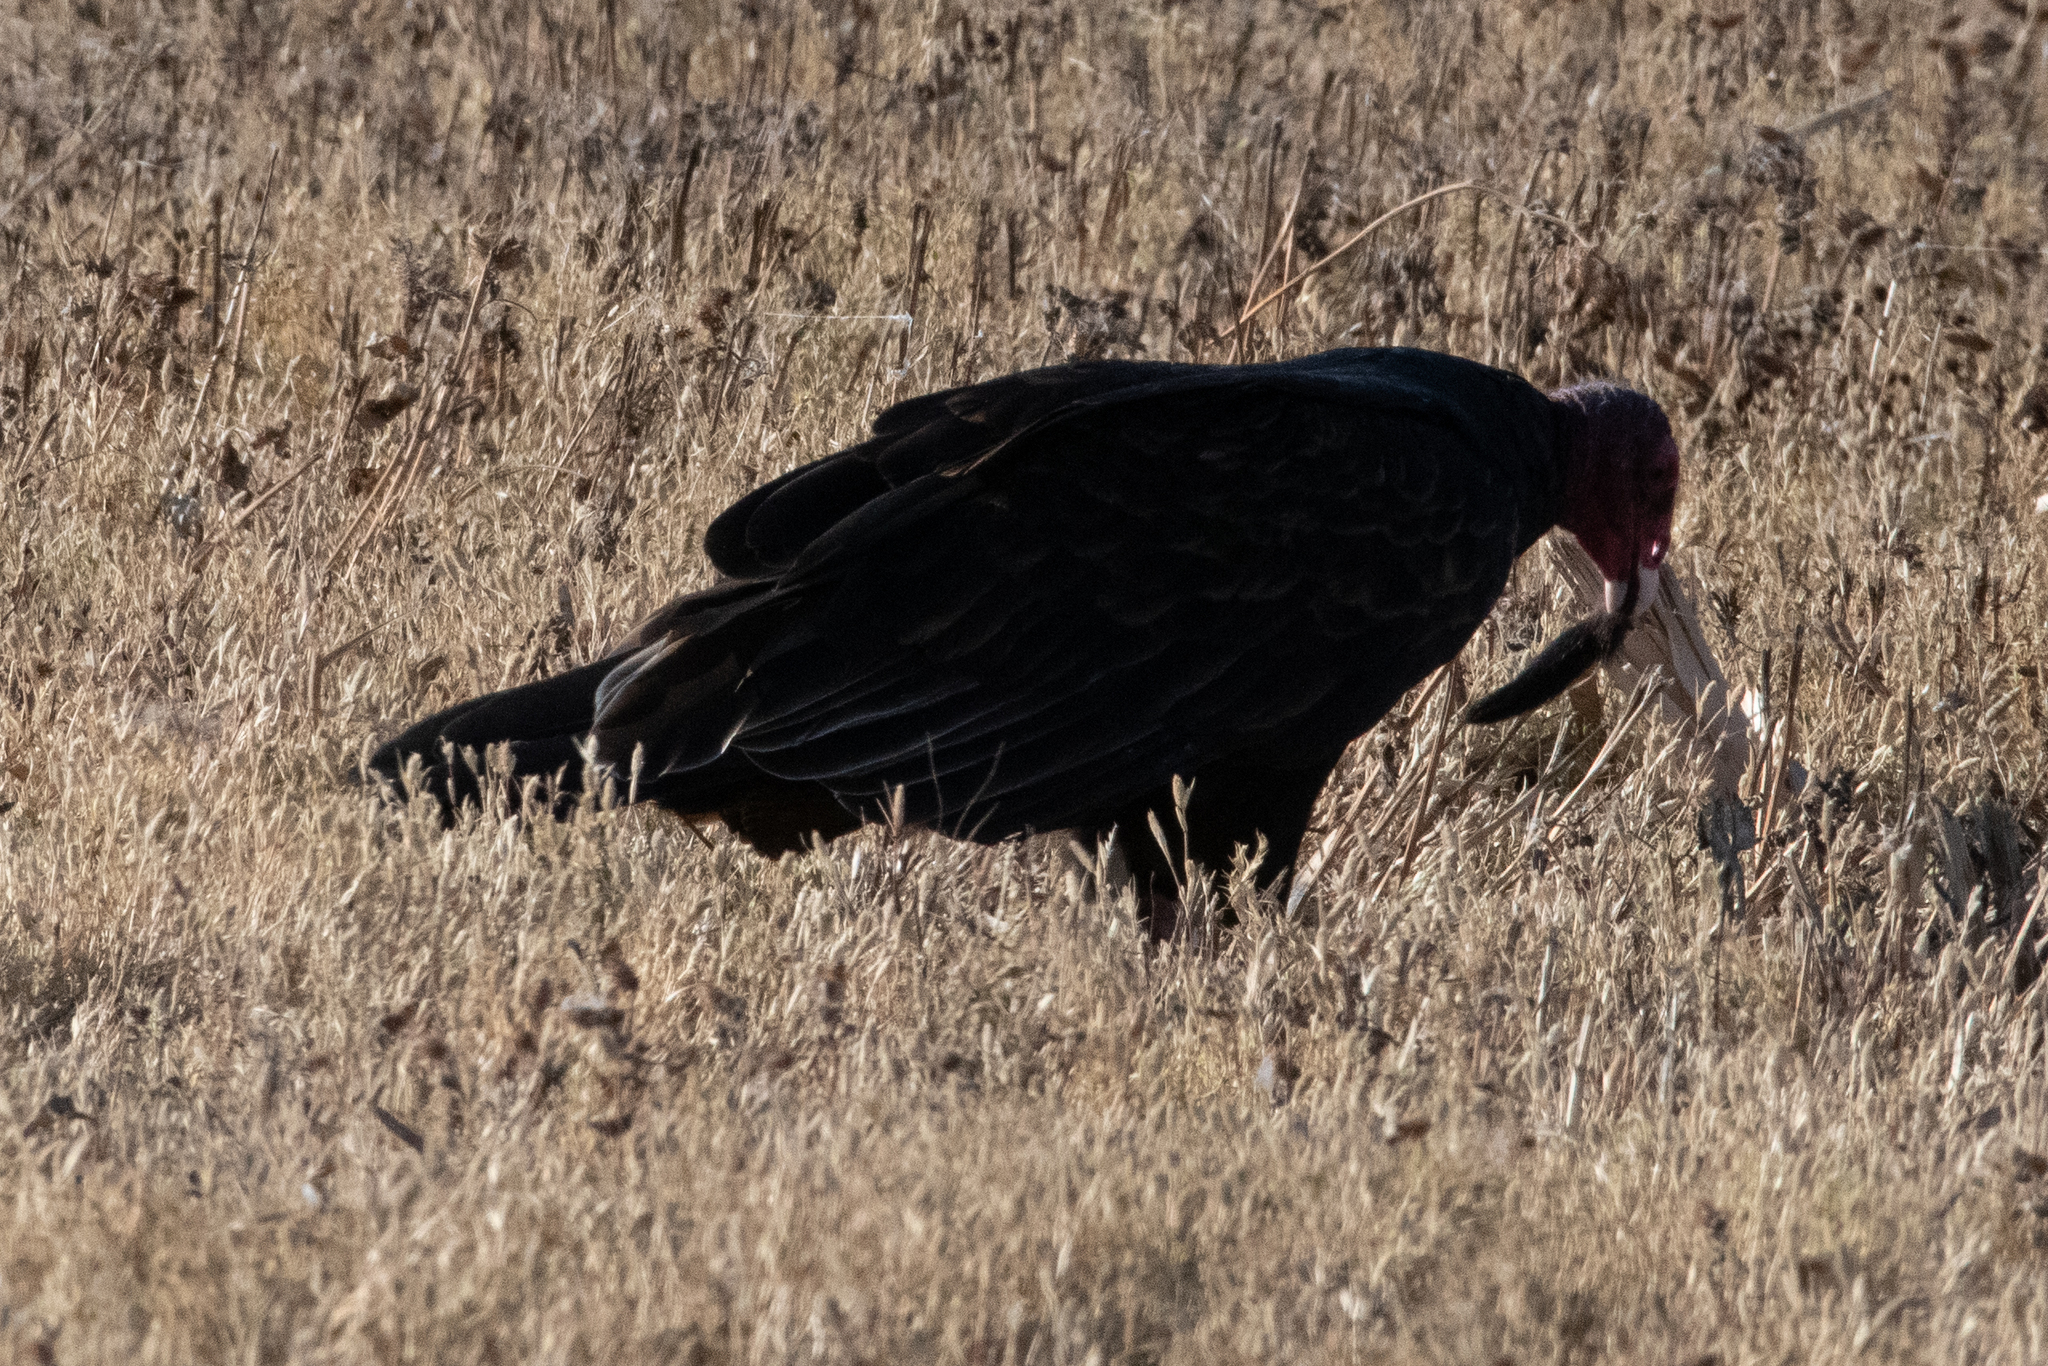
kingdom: Animalia
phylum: Chordata
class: Aves
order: Accipitriformes
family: Cathartidae
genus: Cathartes
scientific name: Cathartes aura
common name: Turkey vulture
